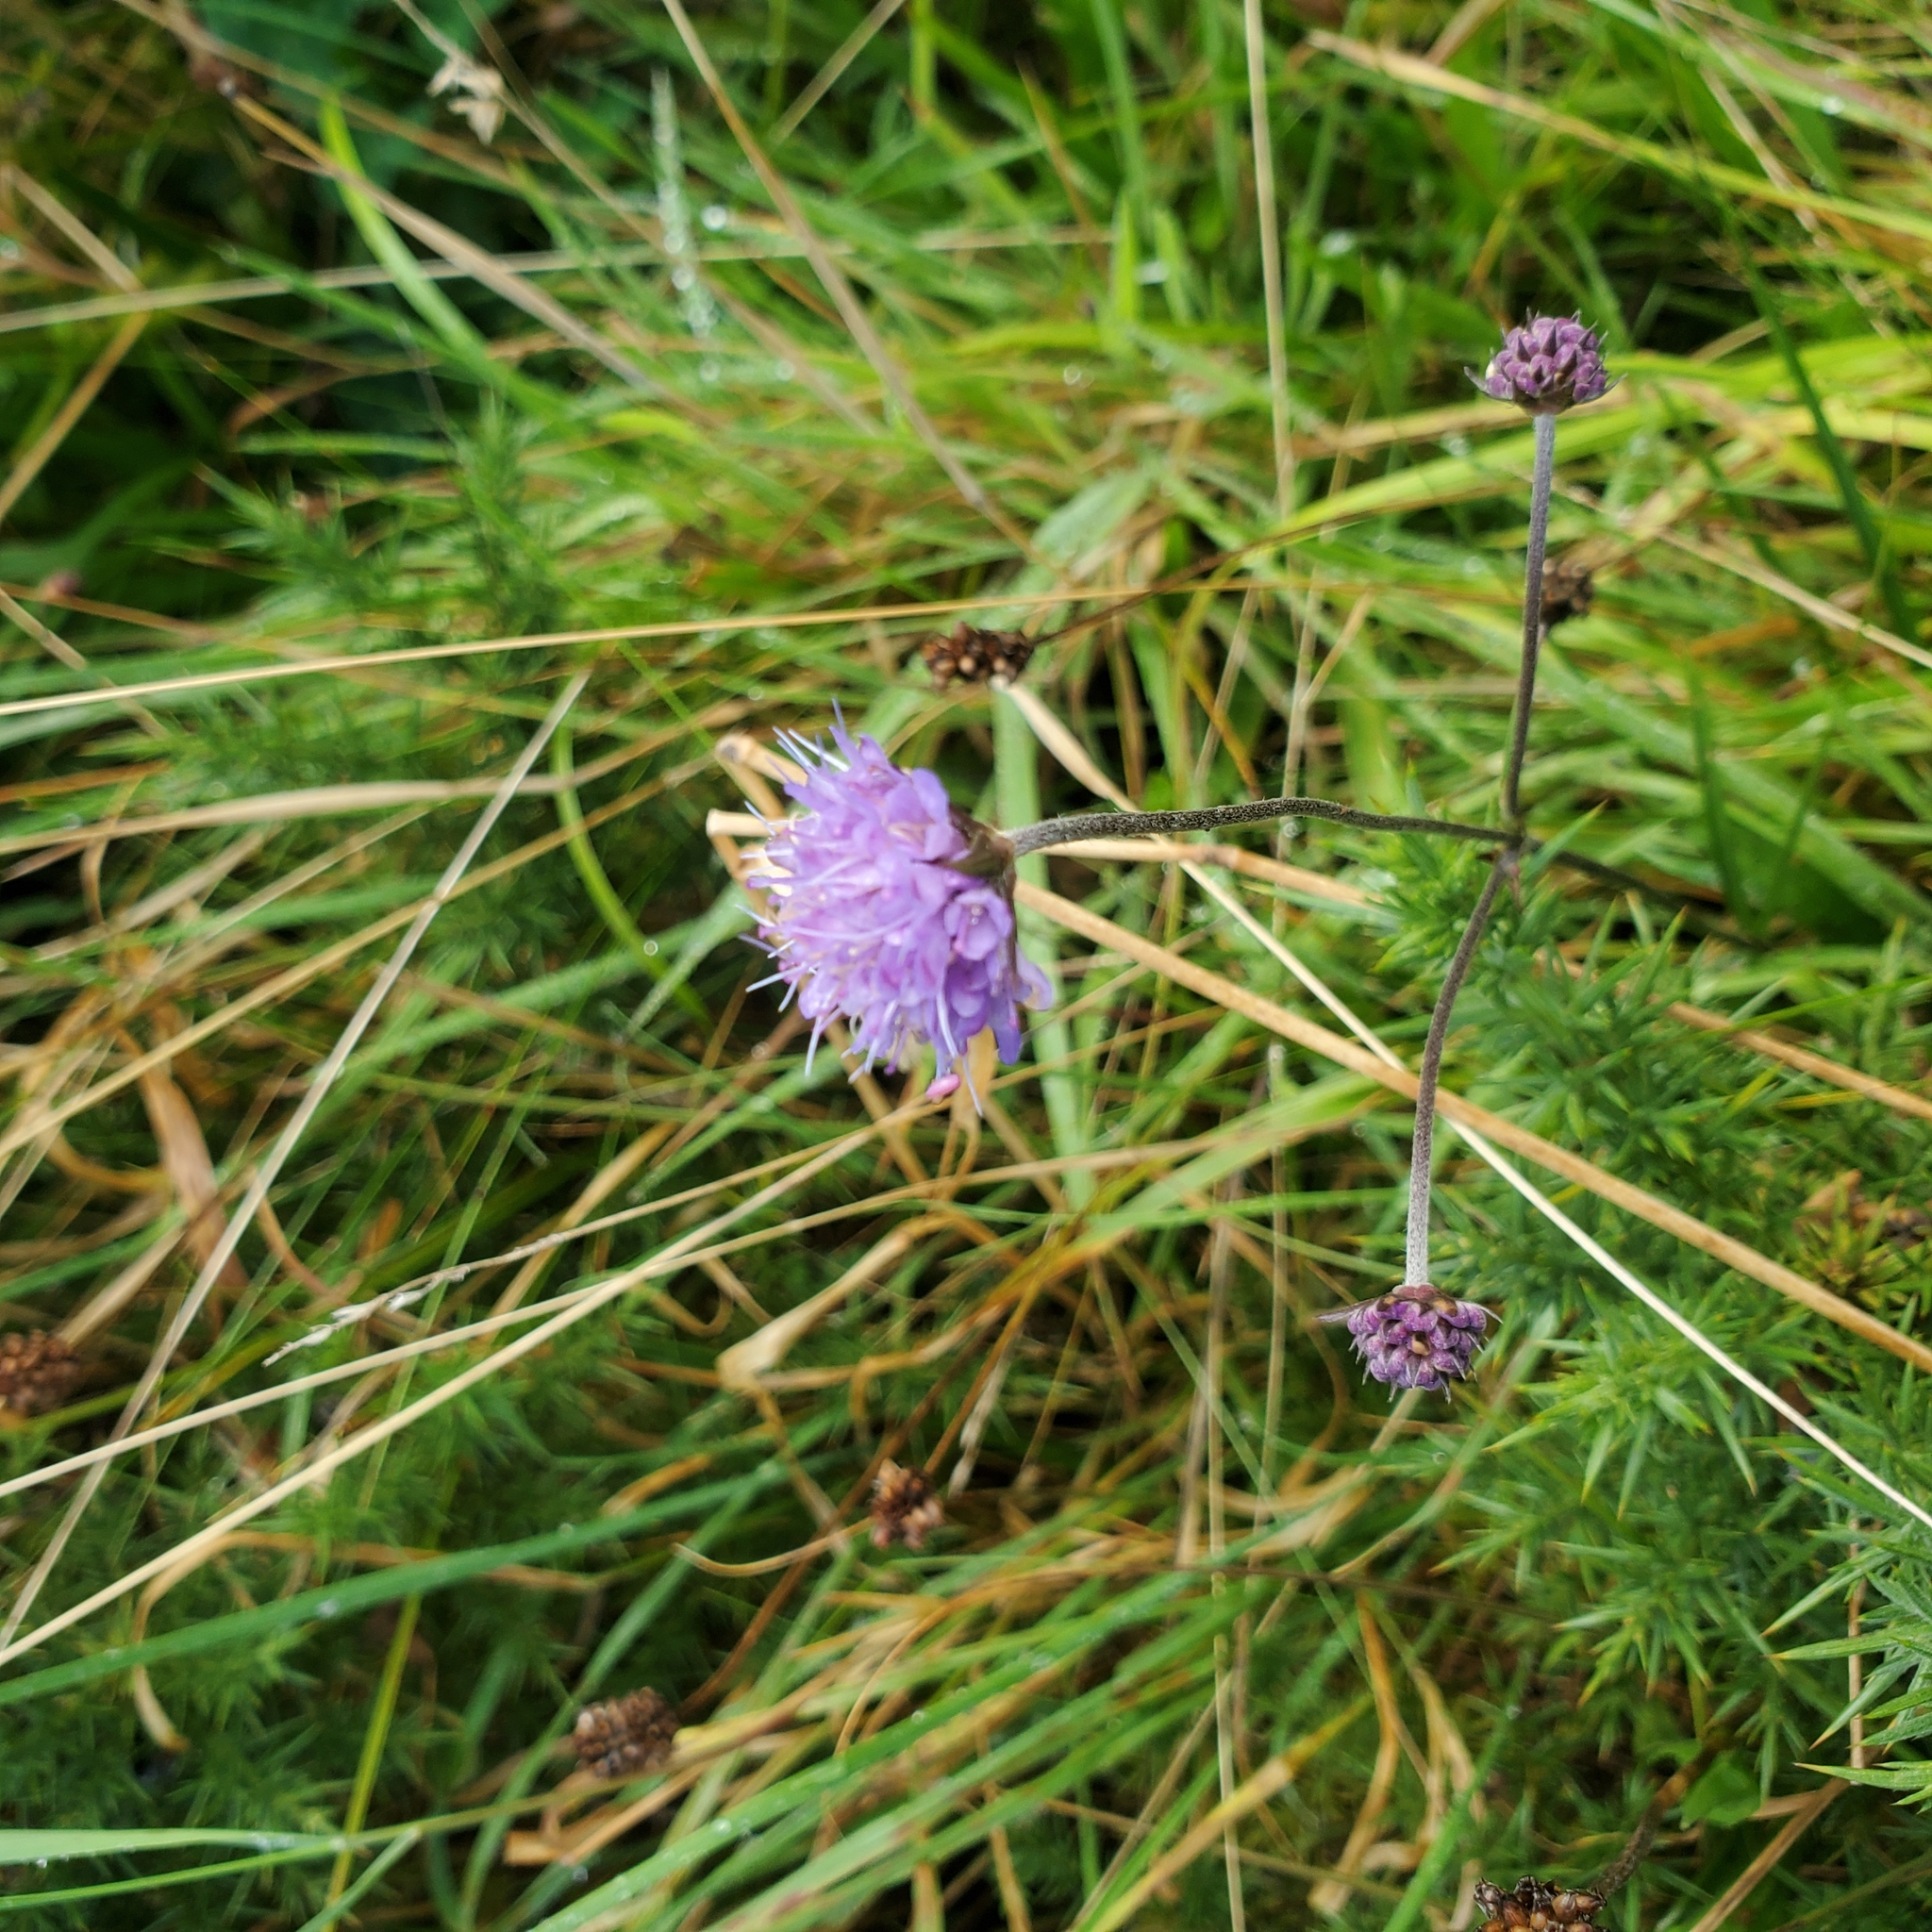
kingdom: Plantae
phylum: Tracheophyta
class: Magnoliopsida
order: Dipsacales
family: Caprifoliaceae
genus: Succisa
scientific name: Succisa pratensis
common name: Devil's-bit
